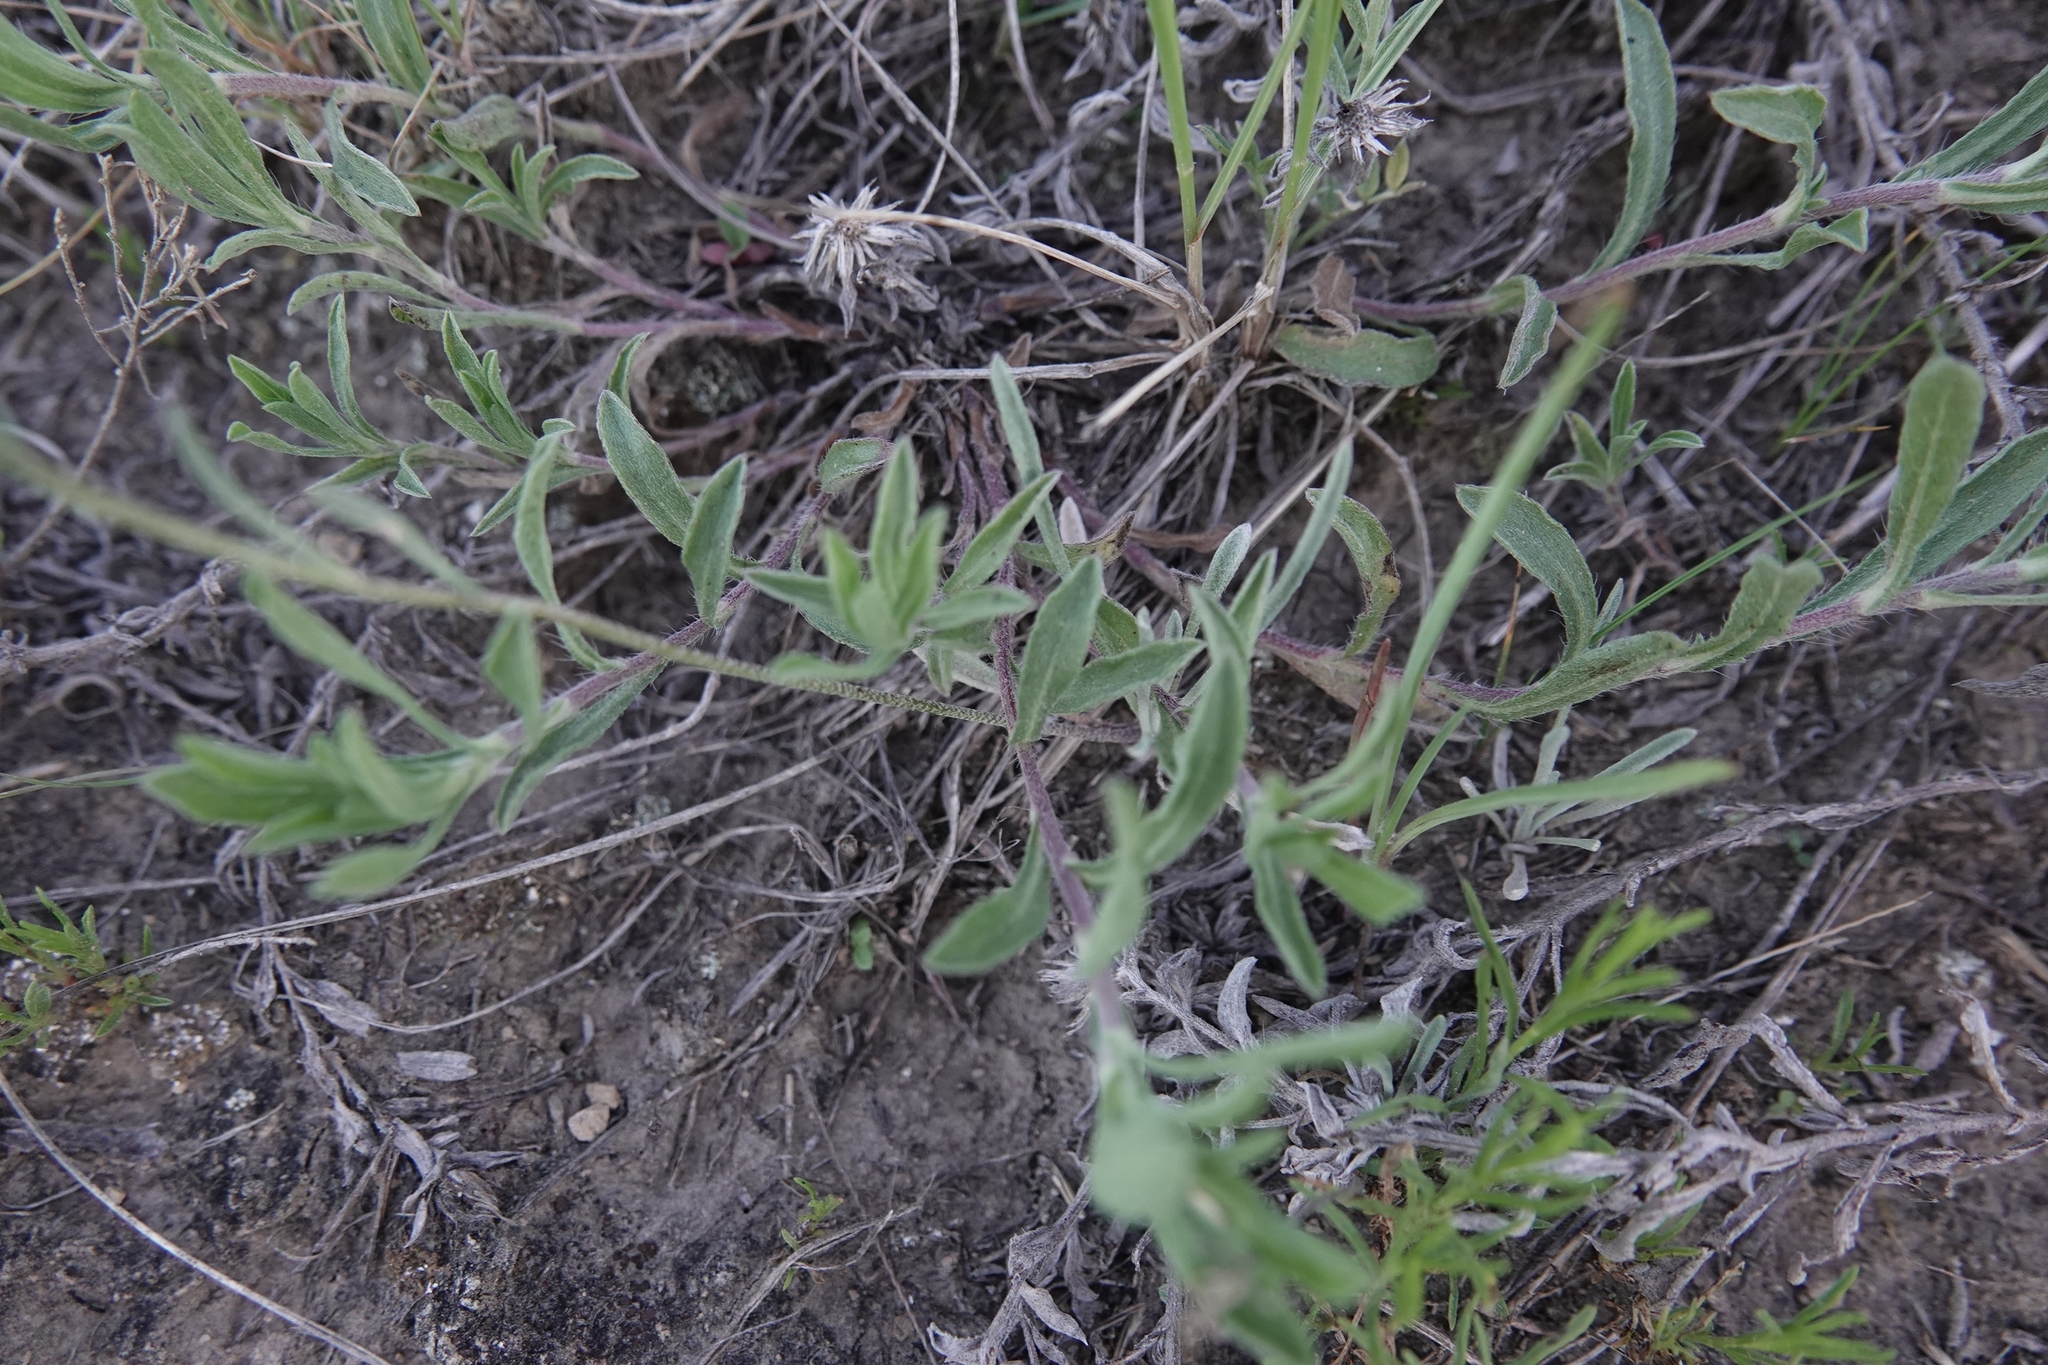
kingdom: Plantae
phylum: Tracheophyta
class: Magnoliopsida
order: Brassicales
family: Brassicaceae
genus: Physaria
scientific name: Physaria arenosa
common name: Great plains bladderpod
